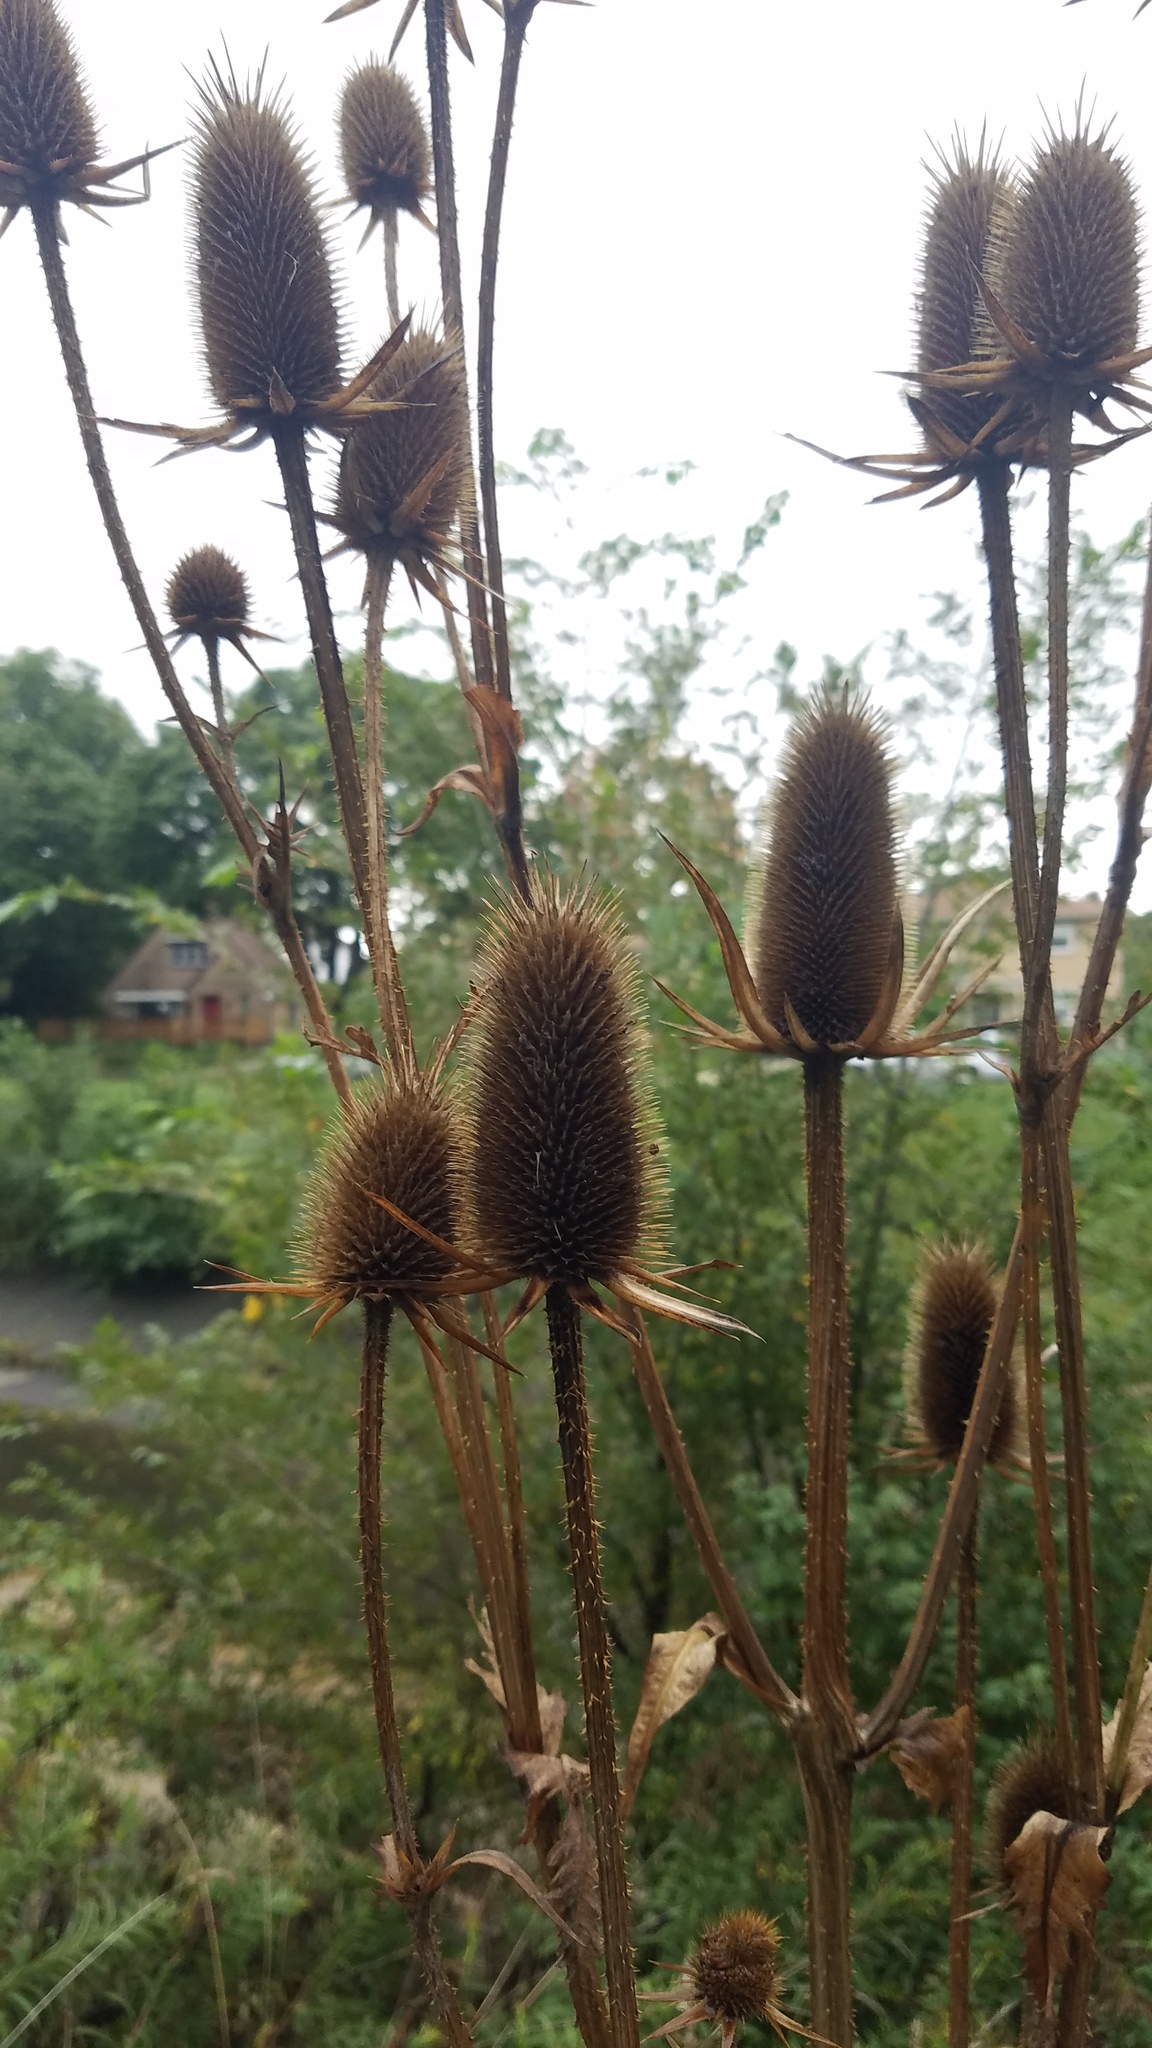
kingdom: Plantae
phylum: Tracheophyta
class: Magnoliopsida
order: Dipsacales
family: Caprifoliaceae
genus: Dipsacus
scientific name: Dipsacus laciniatus
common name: Cut-leaved teasel
